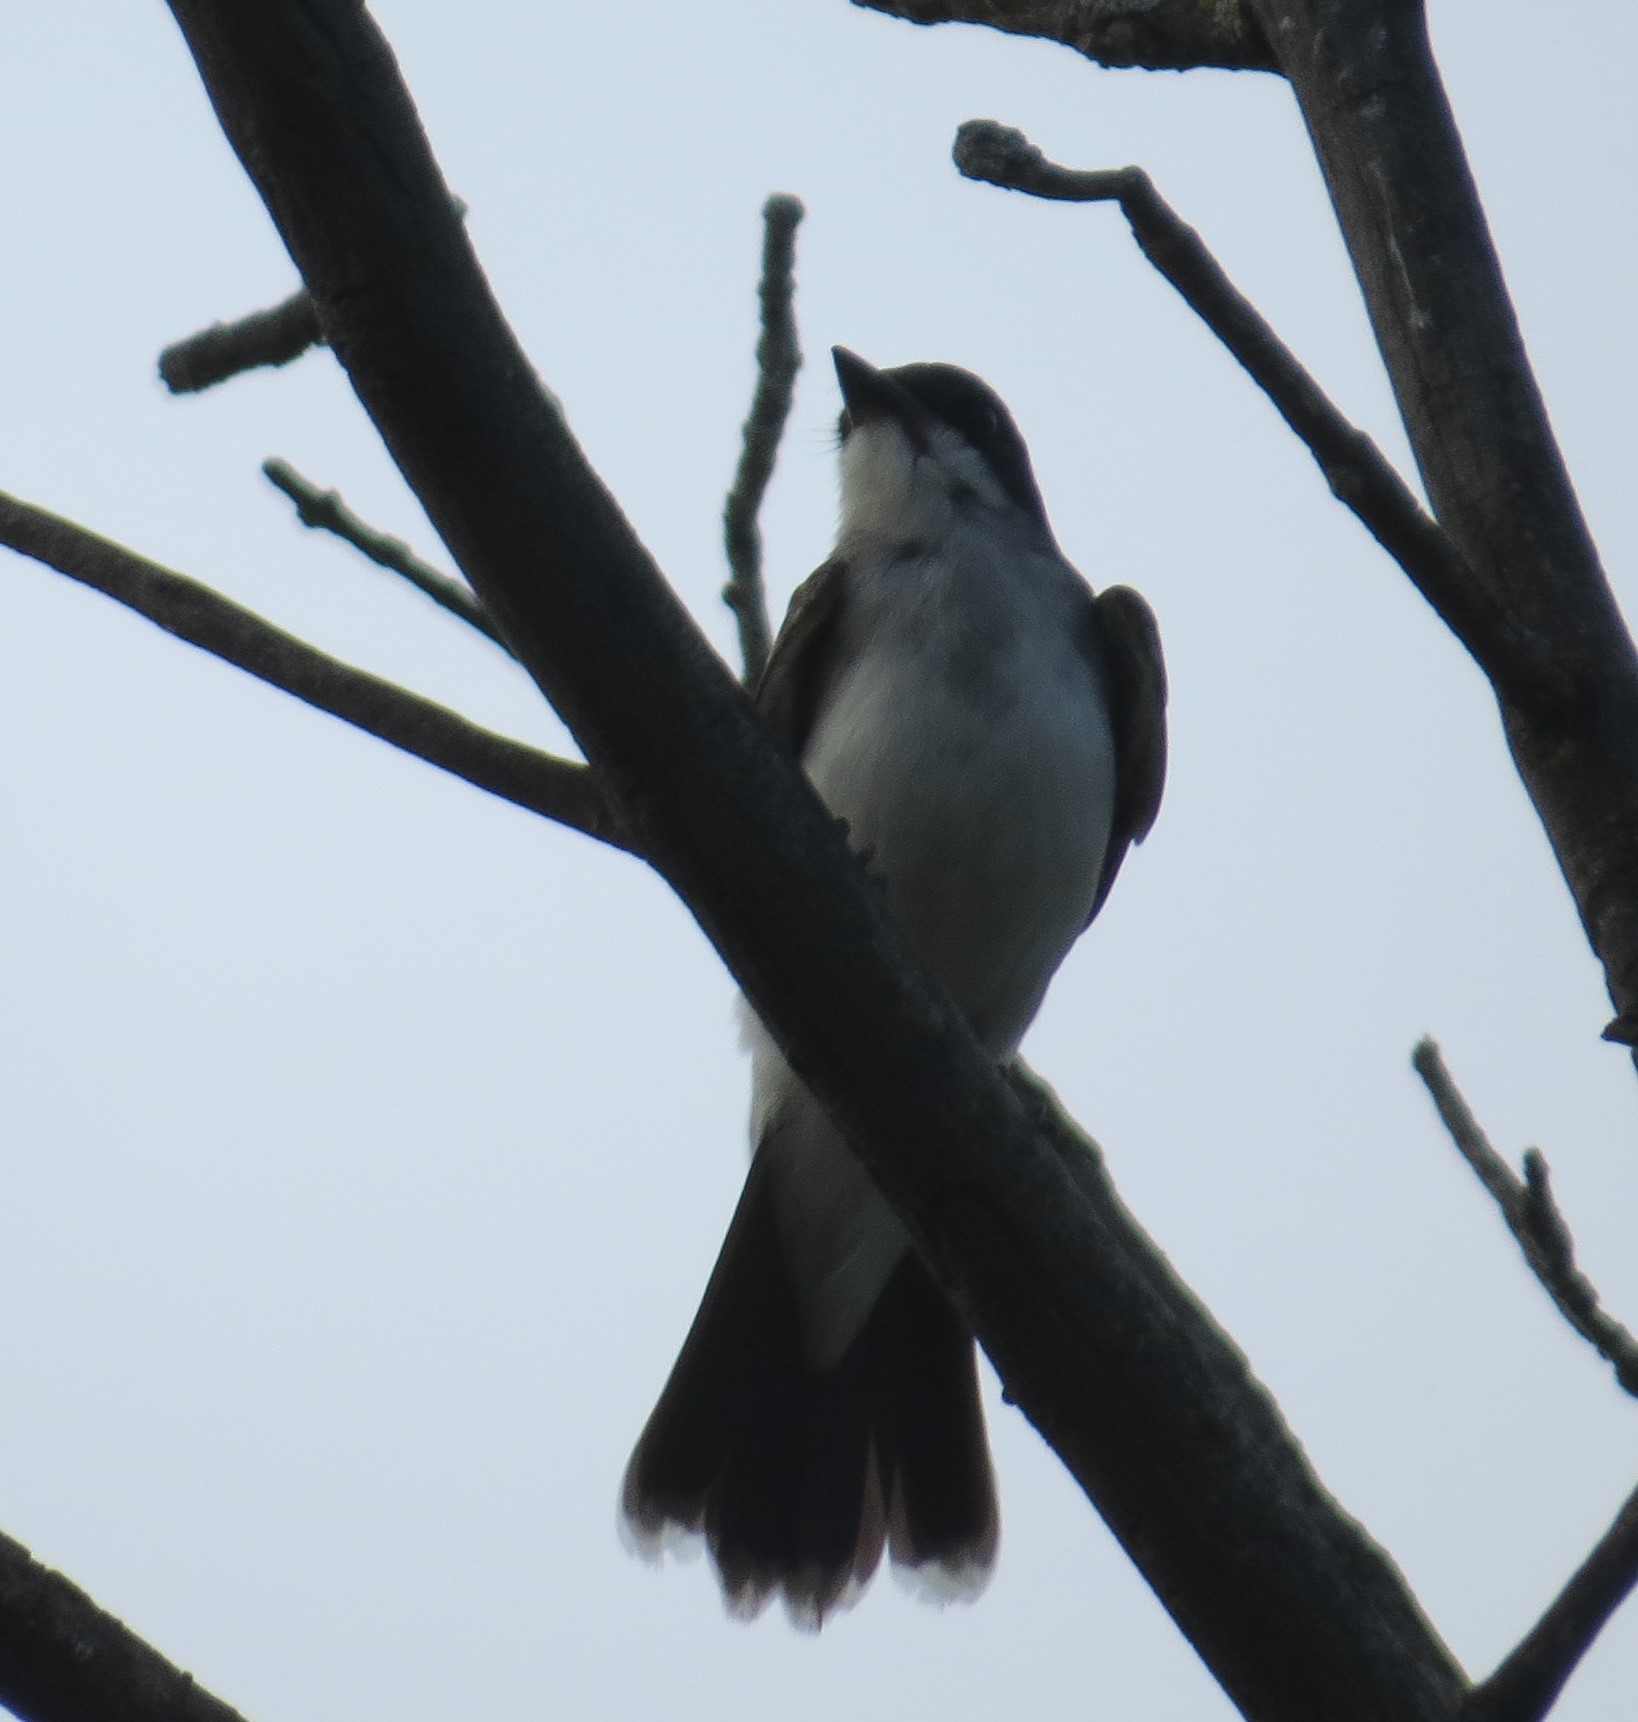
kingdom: Animalia
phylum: Chordata
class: Aves
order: Passeriformes
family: Tyrannidae
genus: Tyrannus
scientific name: Tyrannus tyrannus
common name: Eastern kingbird
